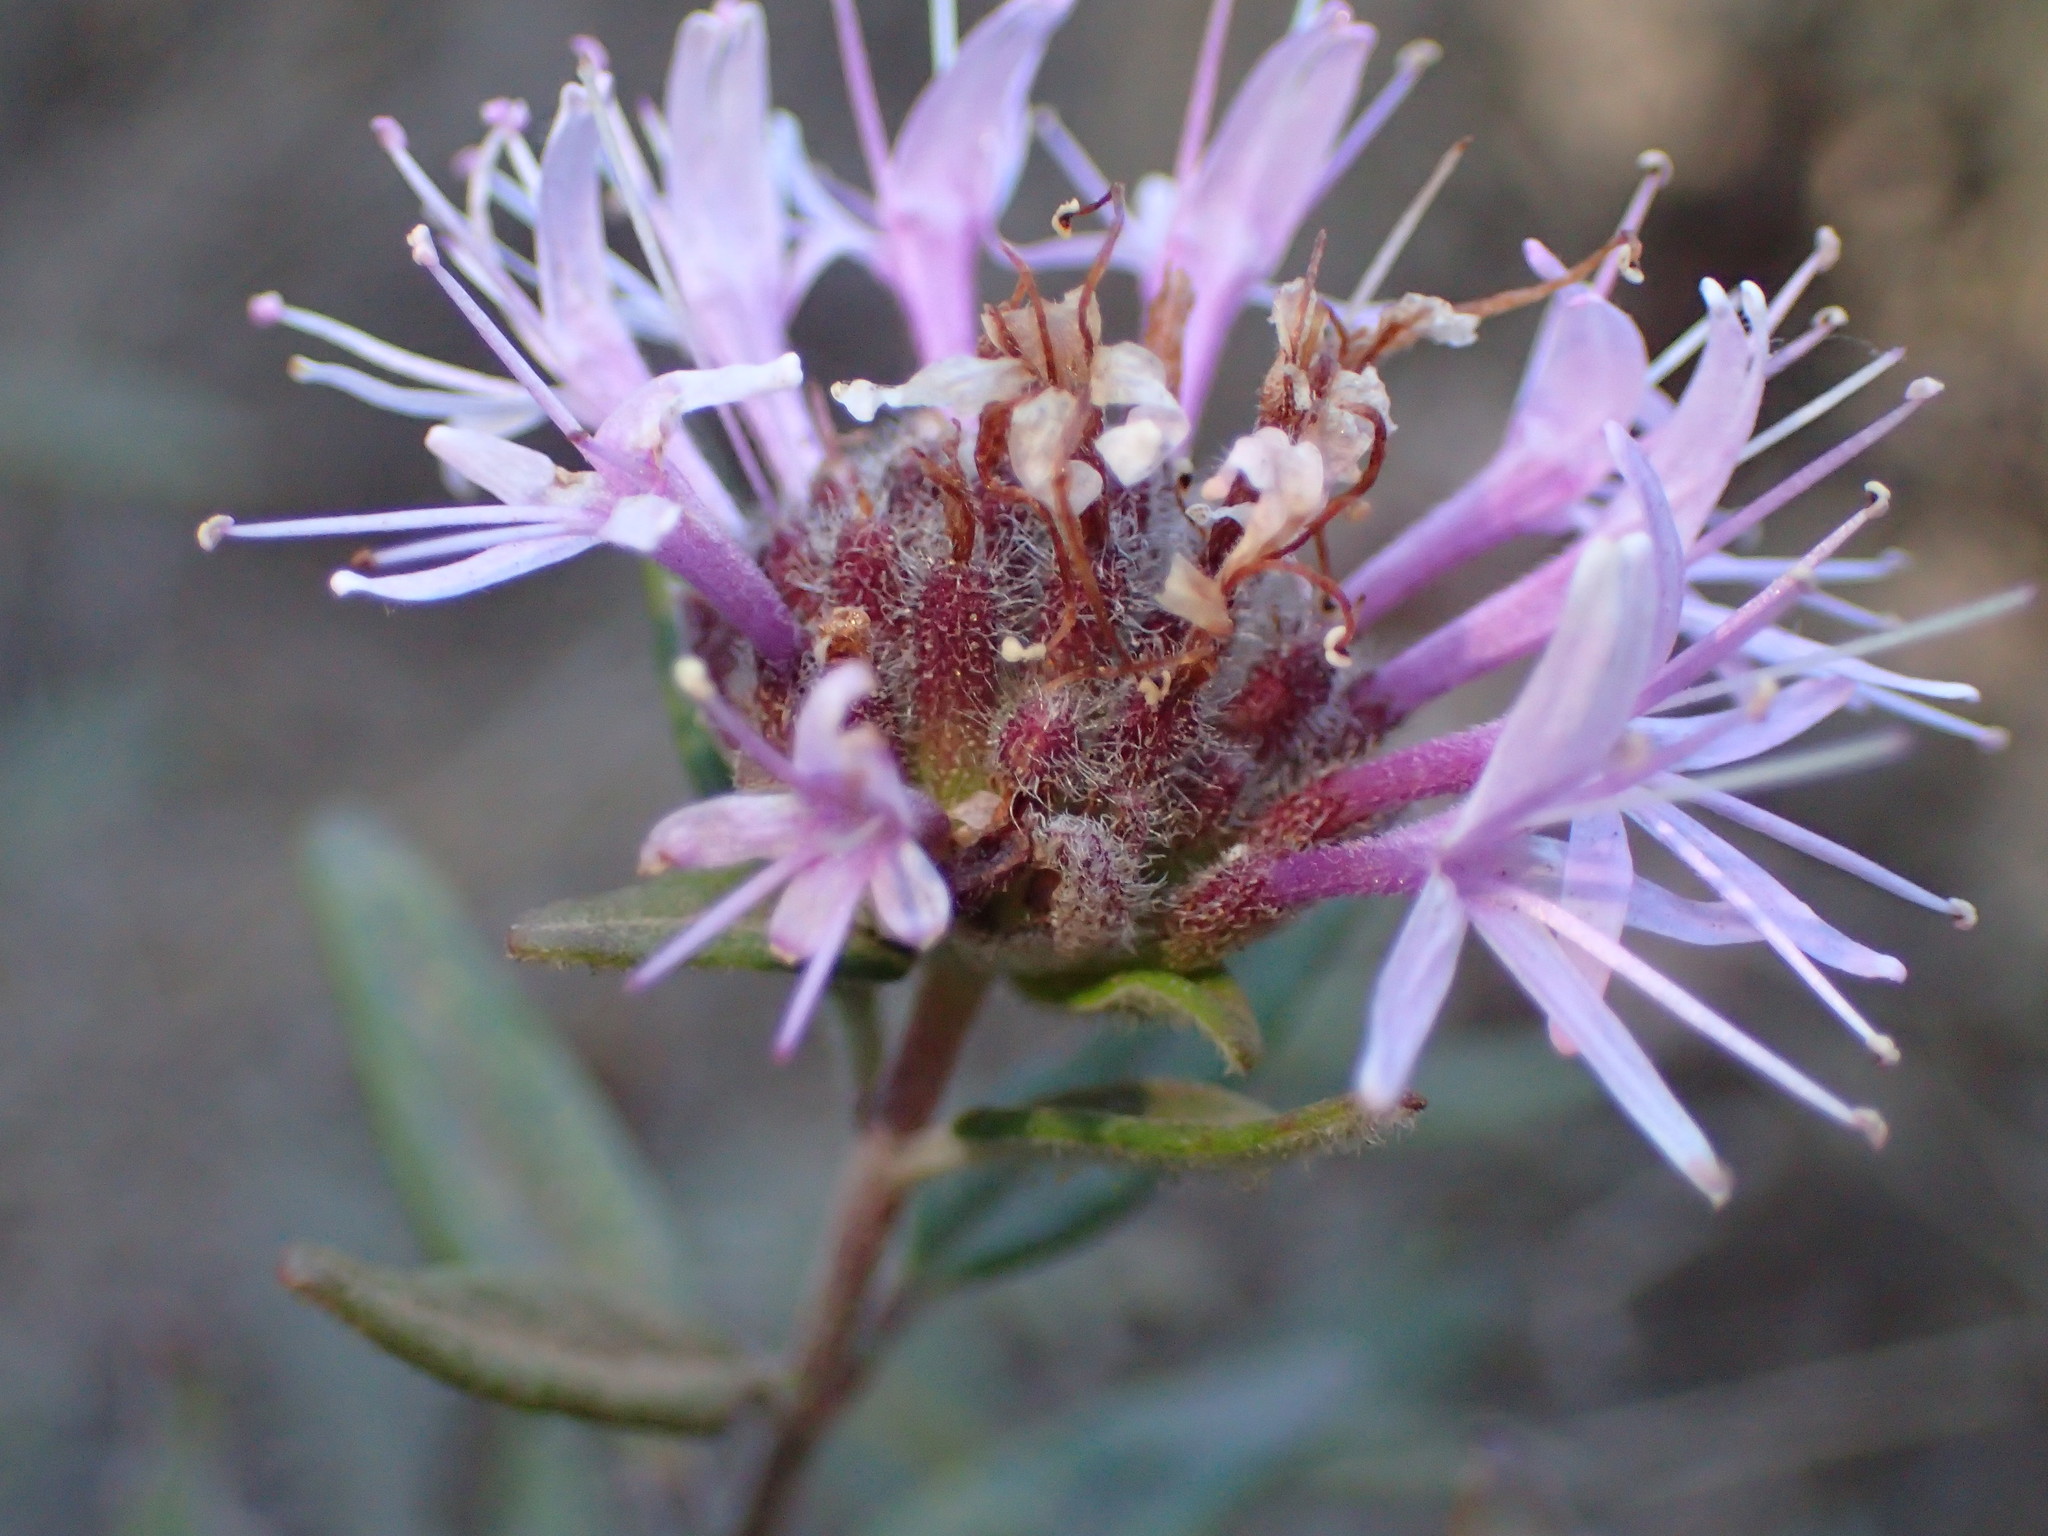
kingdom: Plantae
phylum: Tracheophyta
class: Magnoliopsida
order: Lamiales
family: Lamiaceae
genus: Monardella
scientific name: Monardella hypoleuca
